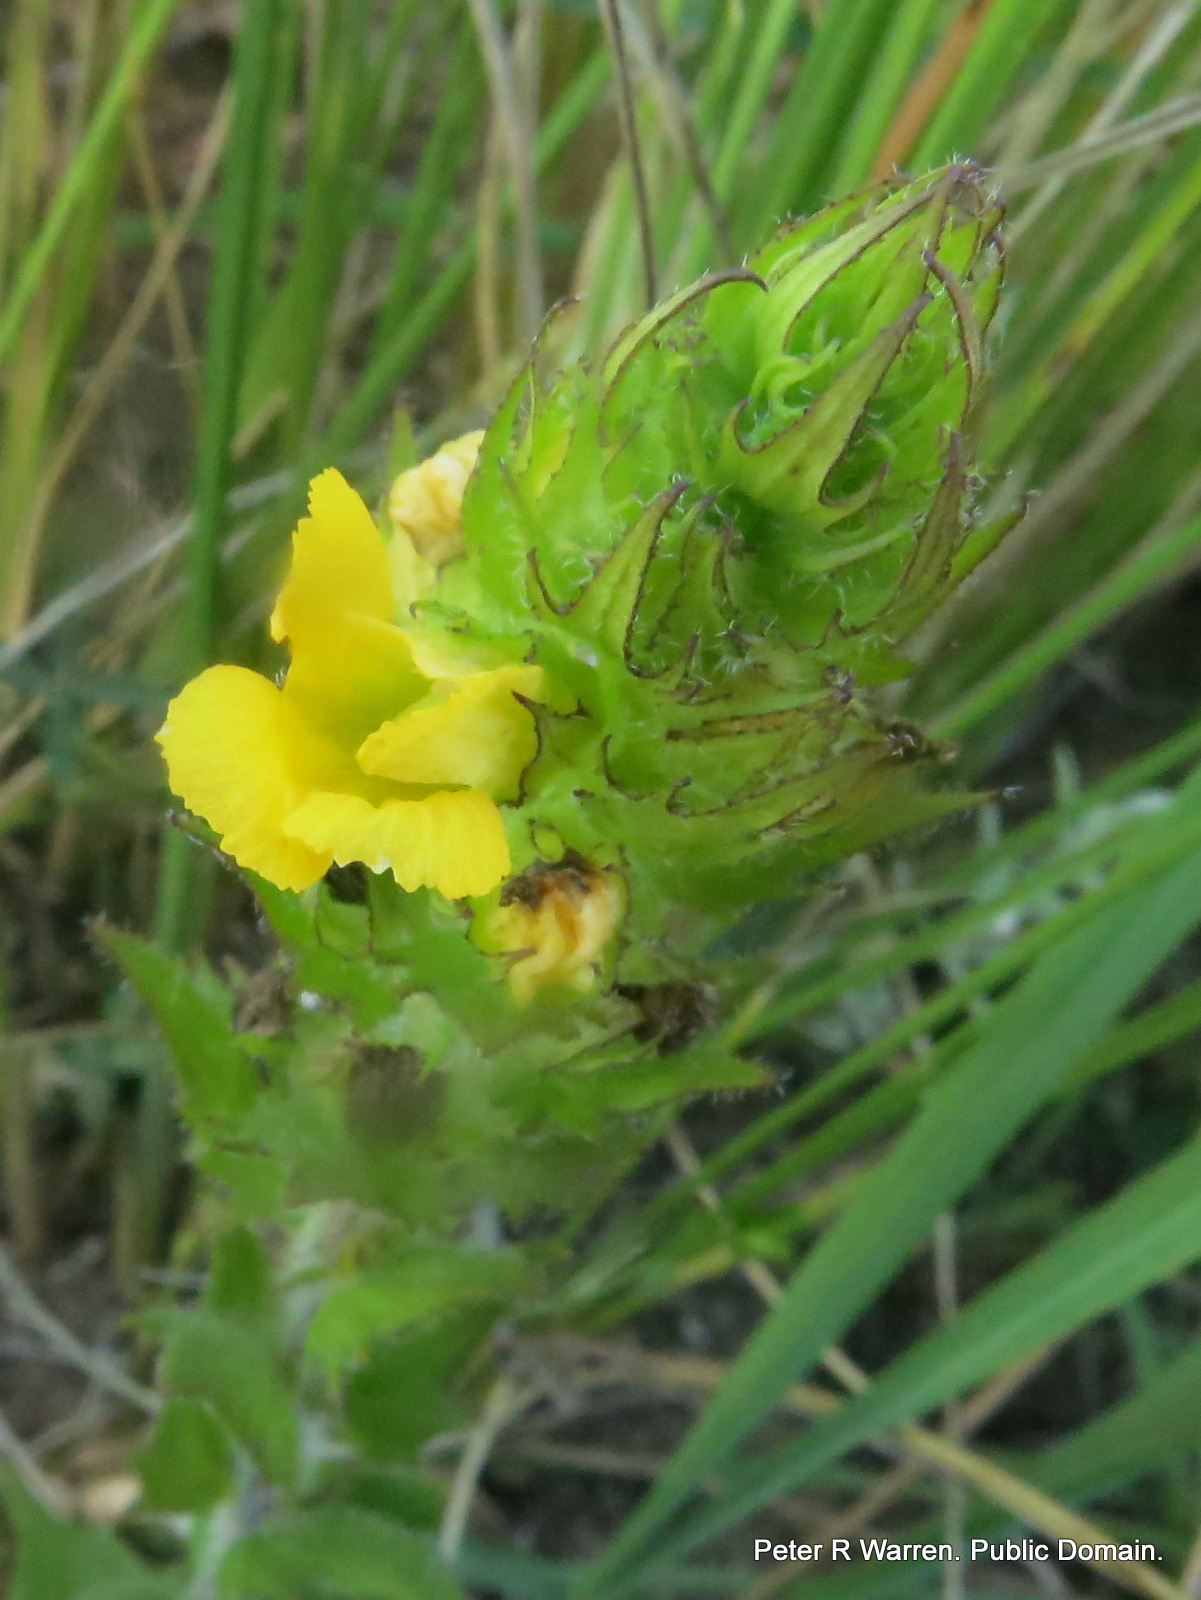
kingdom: Plantae
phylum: Tracheophyta
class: Magnoliopsida
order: Lamiales
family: Orobanchaceae
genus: Alectra
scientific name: Alectra sessiliflora
